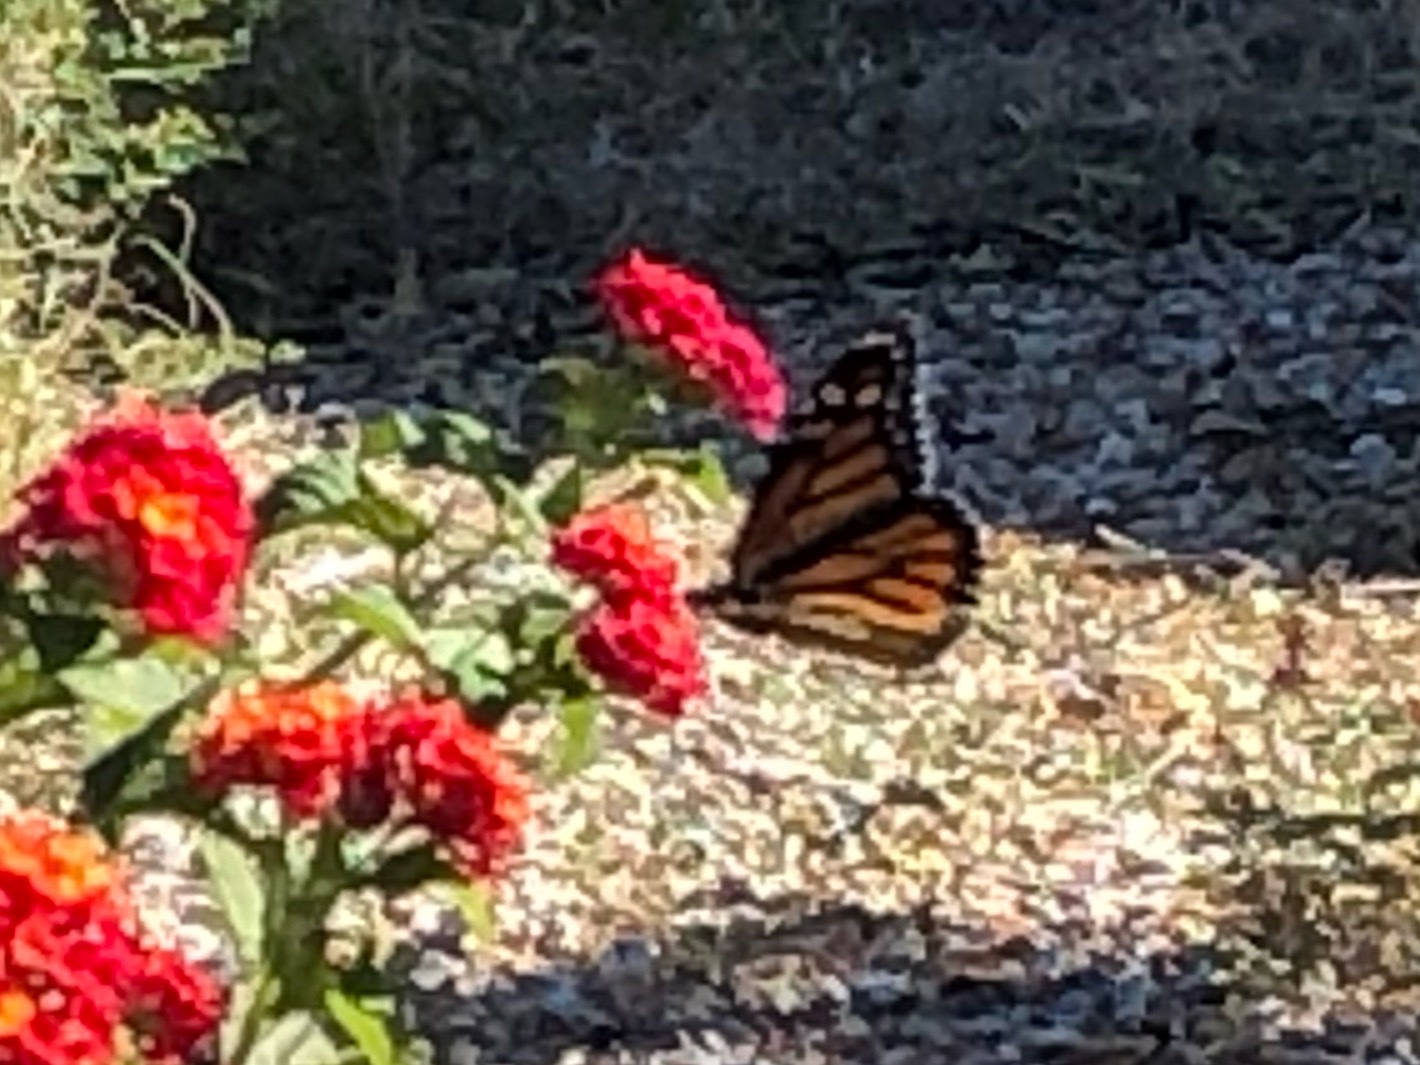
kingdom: Animalia
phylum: Arthropoda
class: Insecta
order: Lepidoptera
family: Nymphalidae
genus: Danaus
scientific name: Danaus plexippus
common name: Monarch
